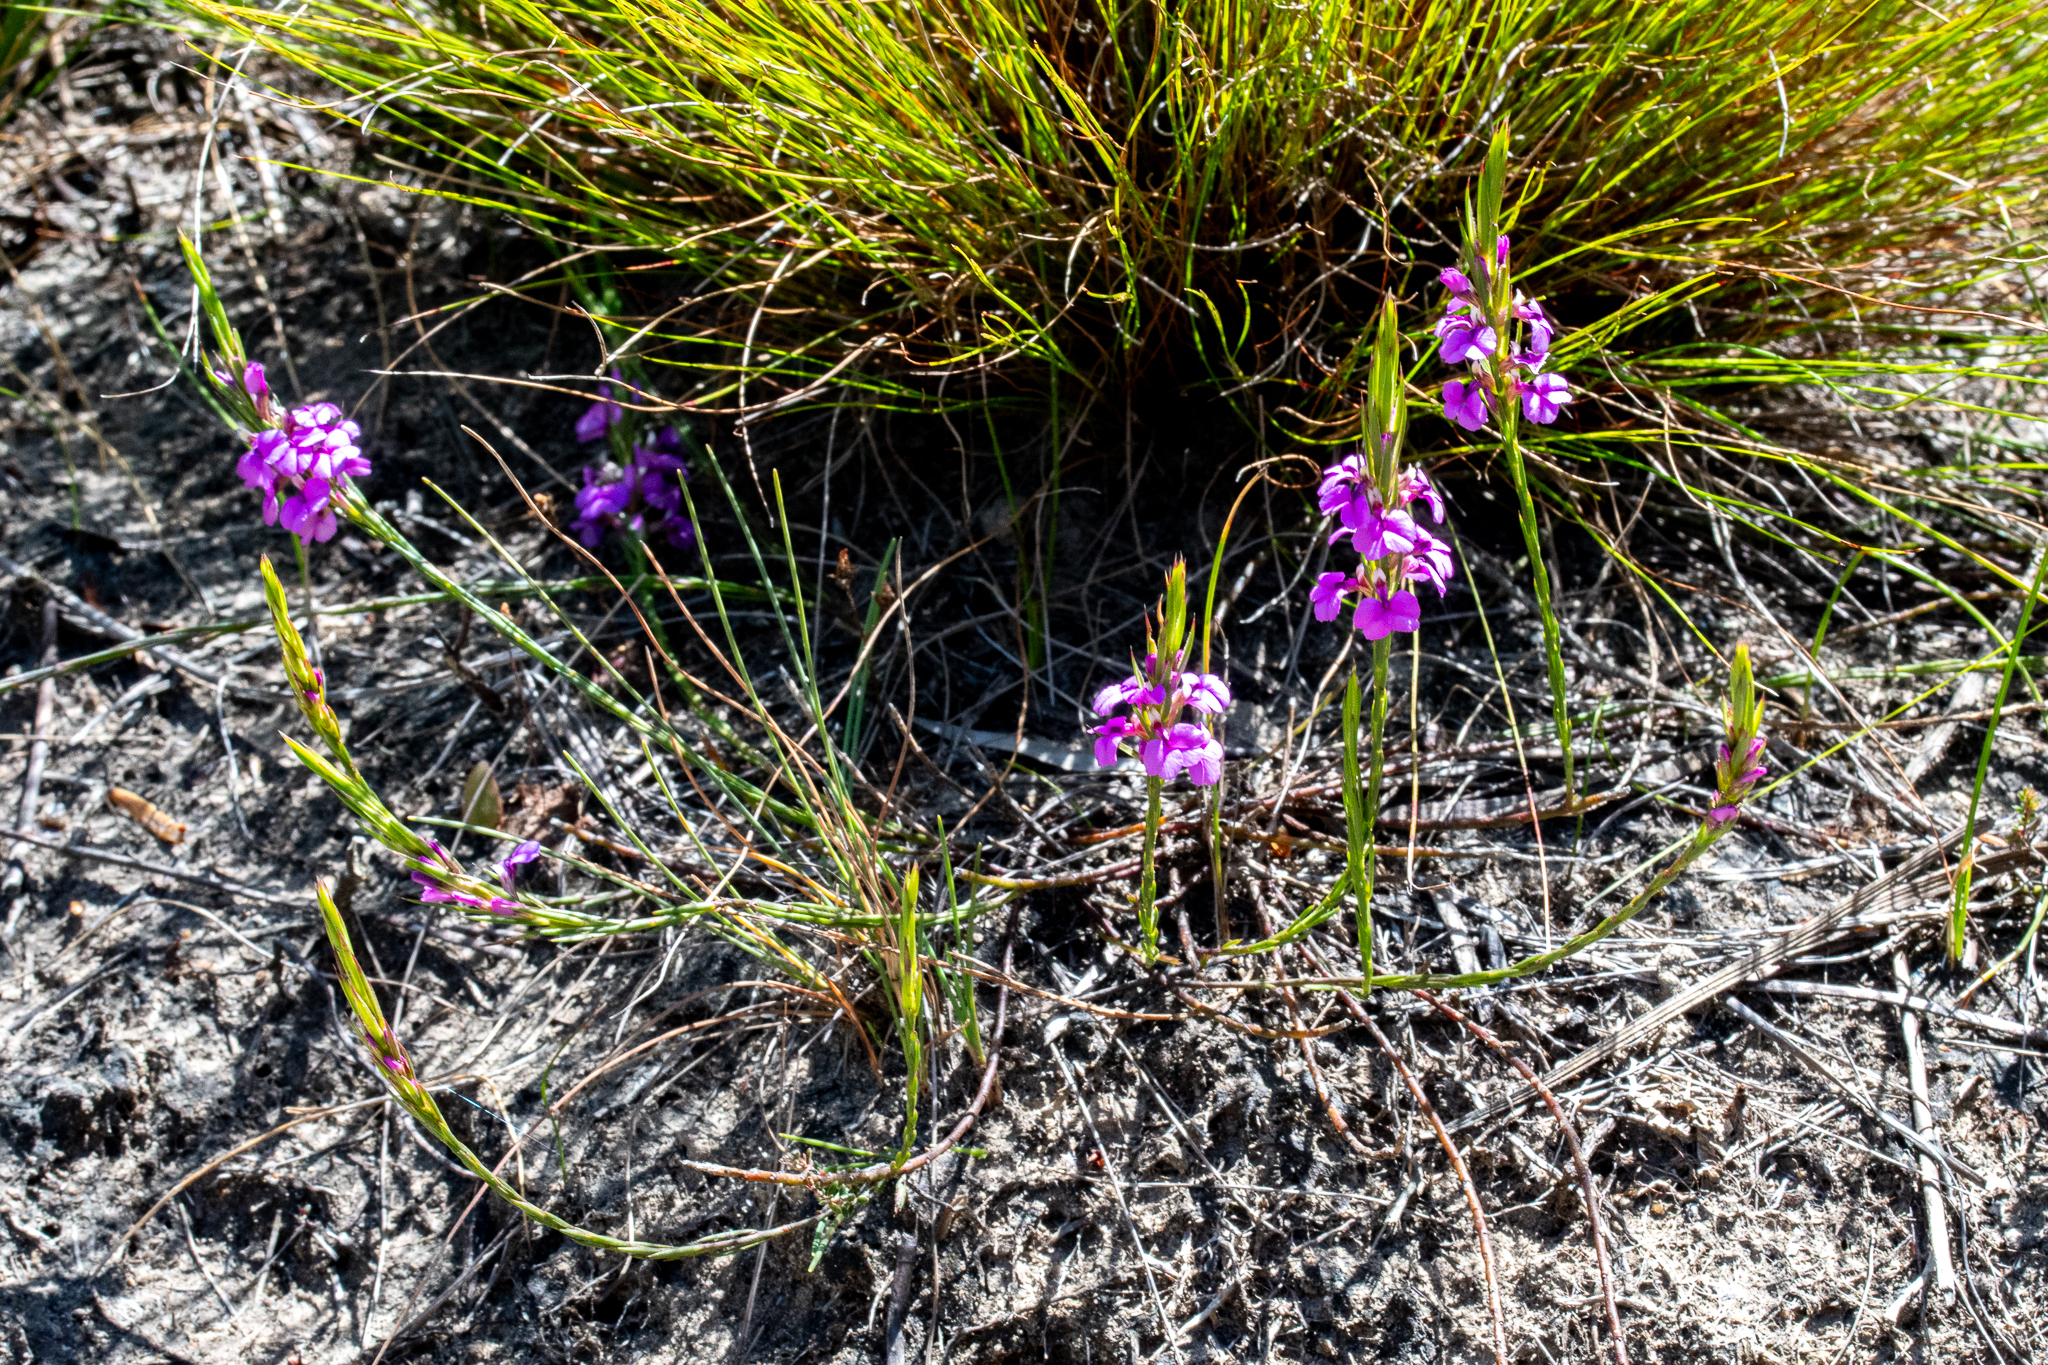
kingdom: Plantae
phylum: Tracheophyta
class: Magnoliopsida
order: Fabales
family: Polygalaceae
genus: Muraltia
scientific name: Muraltia satureioides
